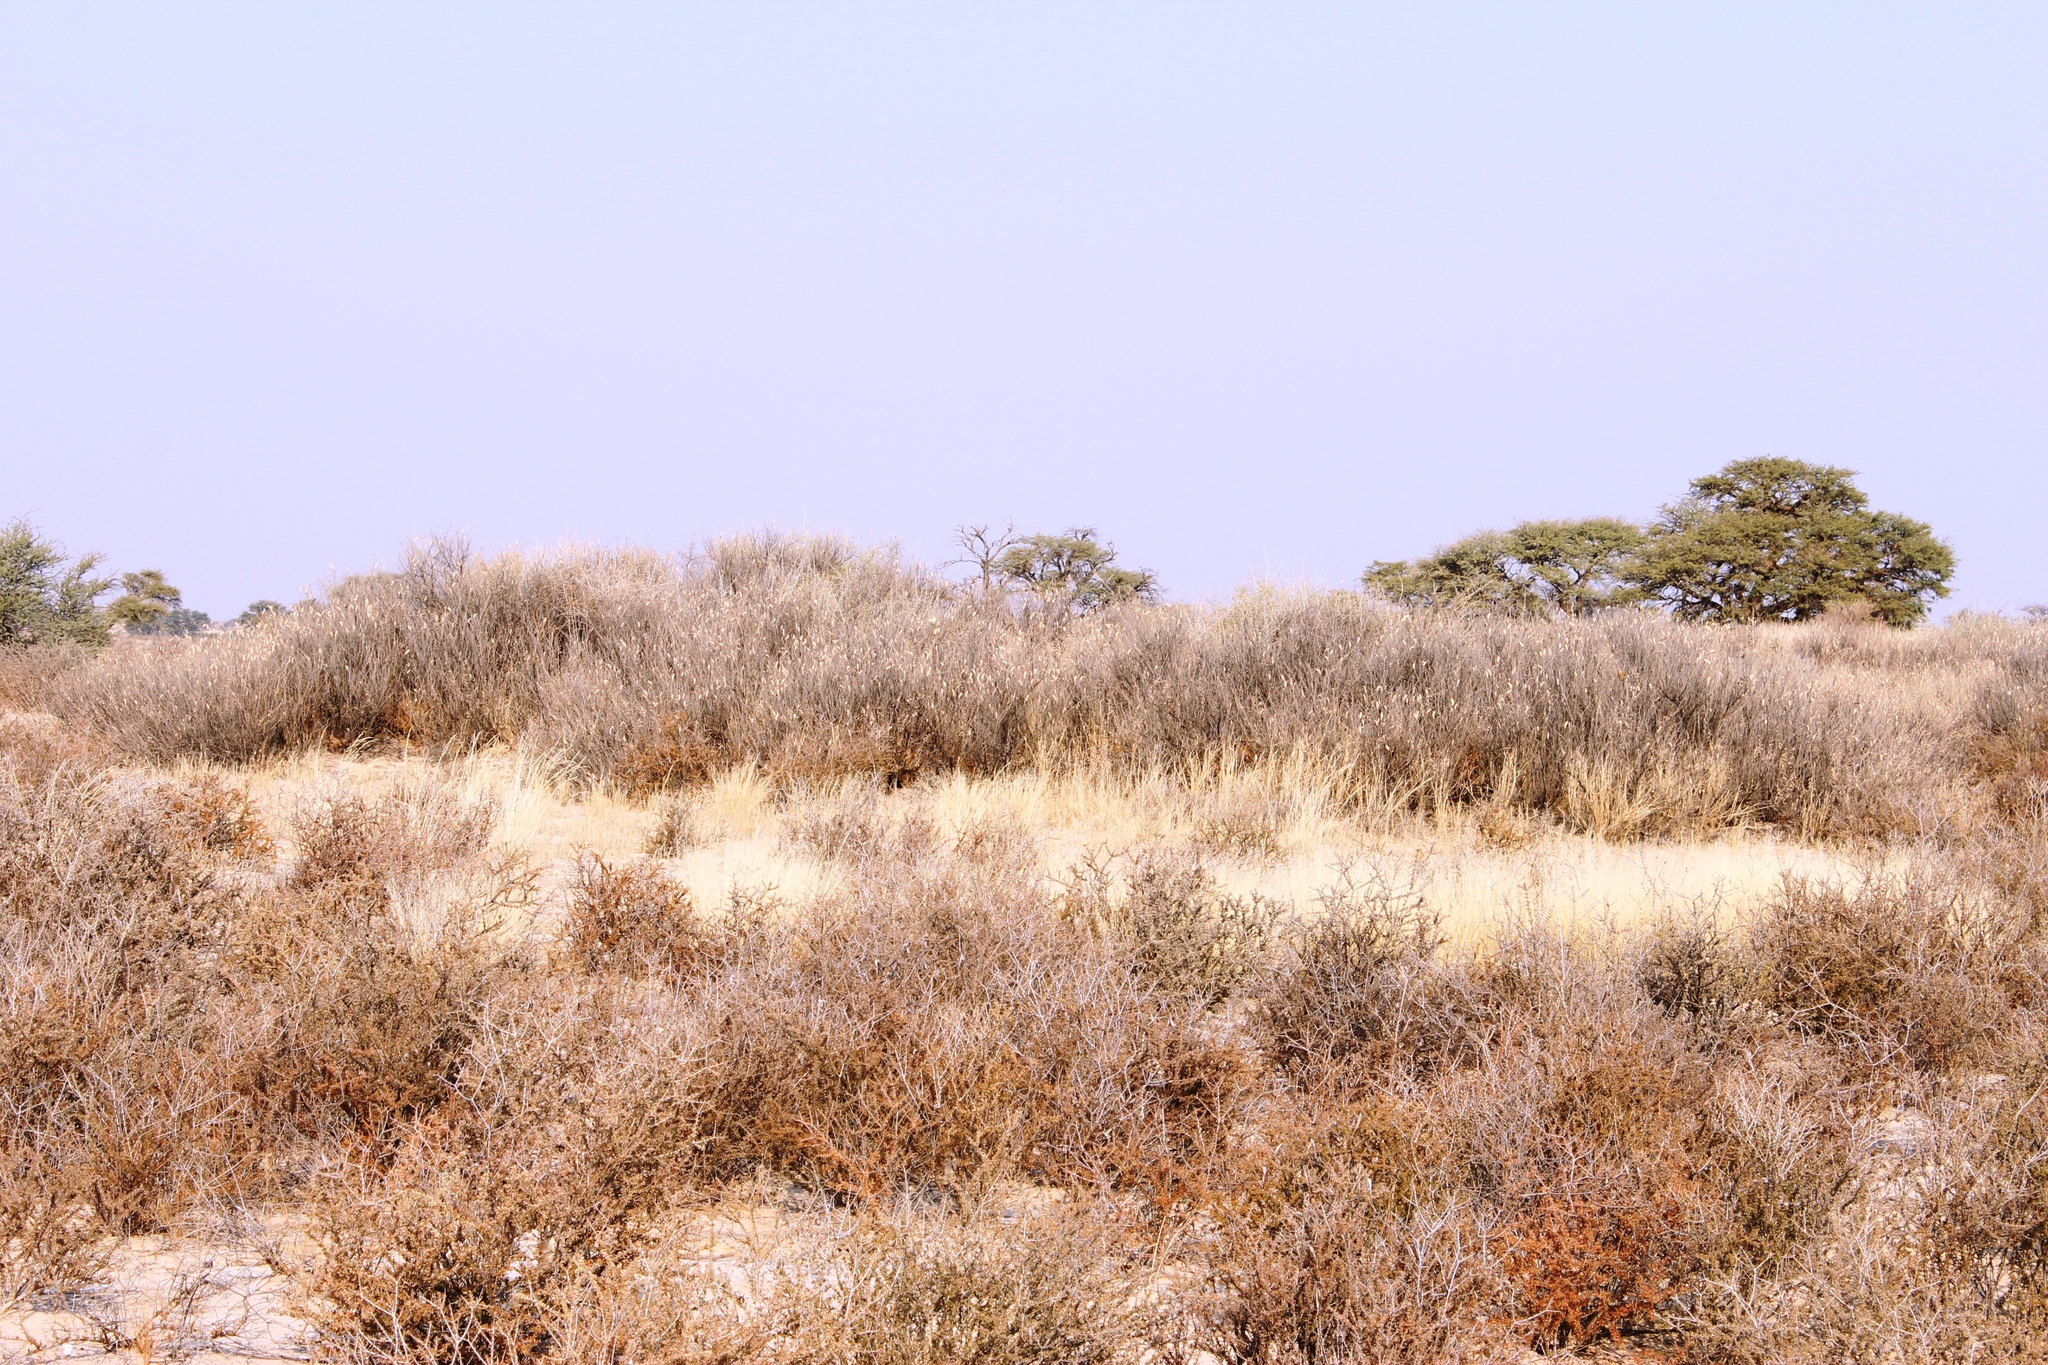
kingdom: Plantae
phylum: Tracheophyta
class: Magnoliopsida
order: Fabales
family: Fabaceae
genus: Vachellia
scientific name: Vachellia hebeclada
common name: Candle thorn
